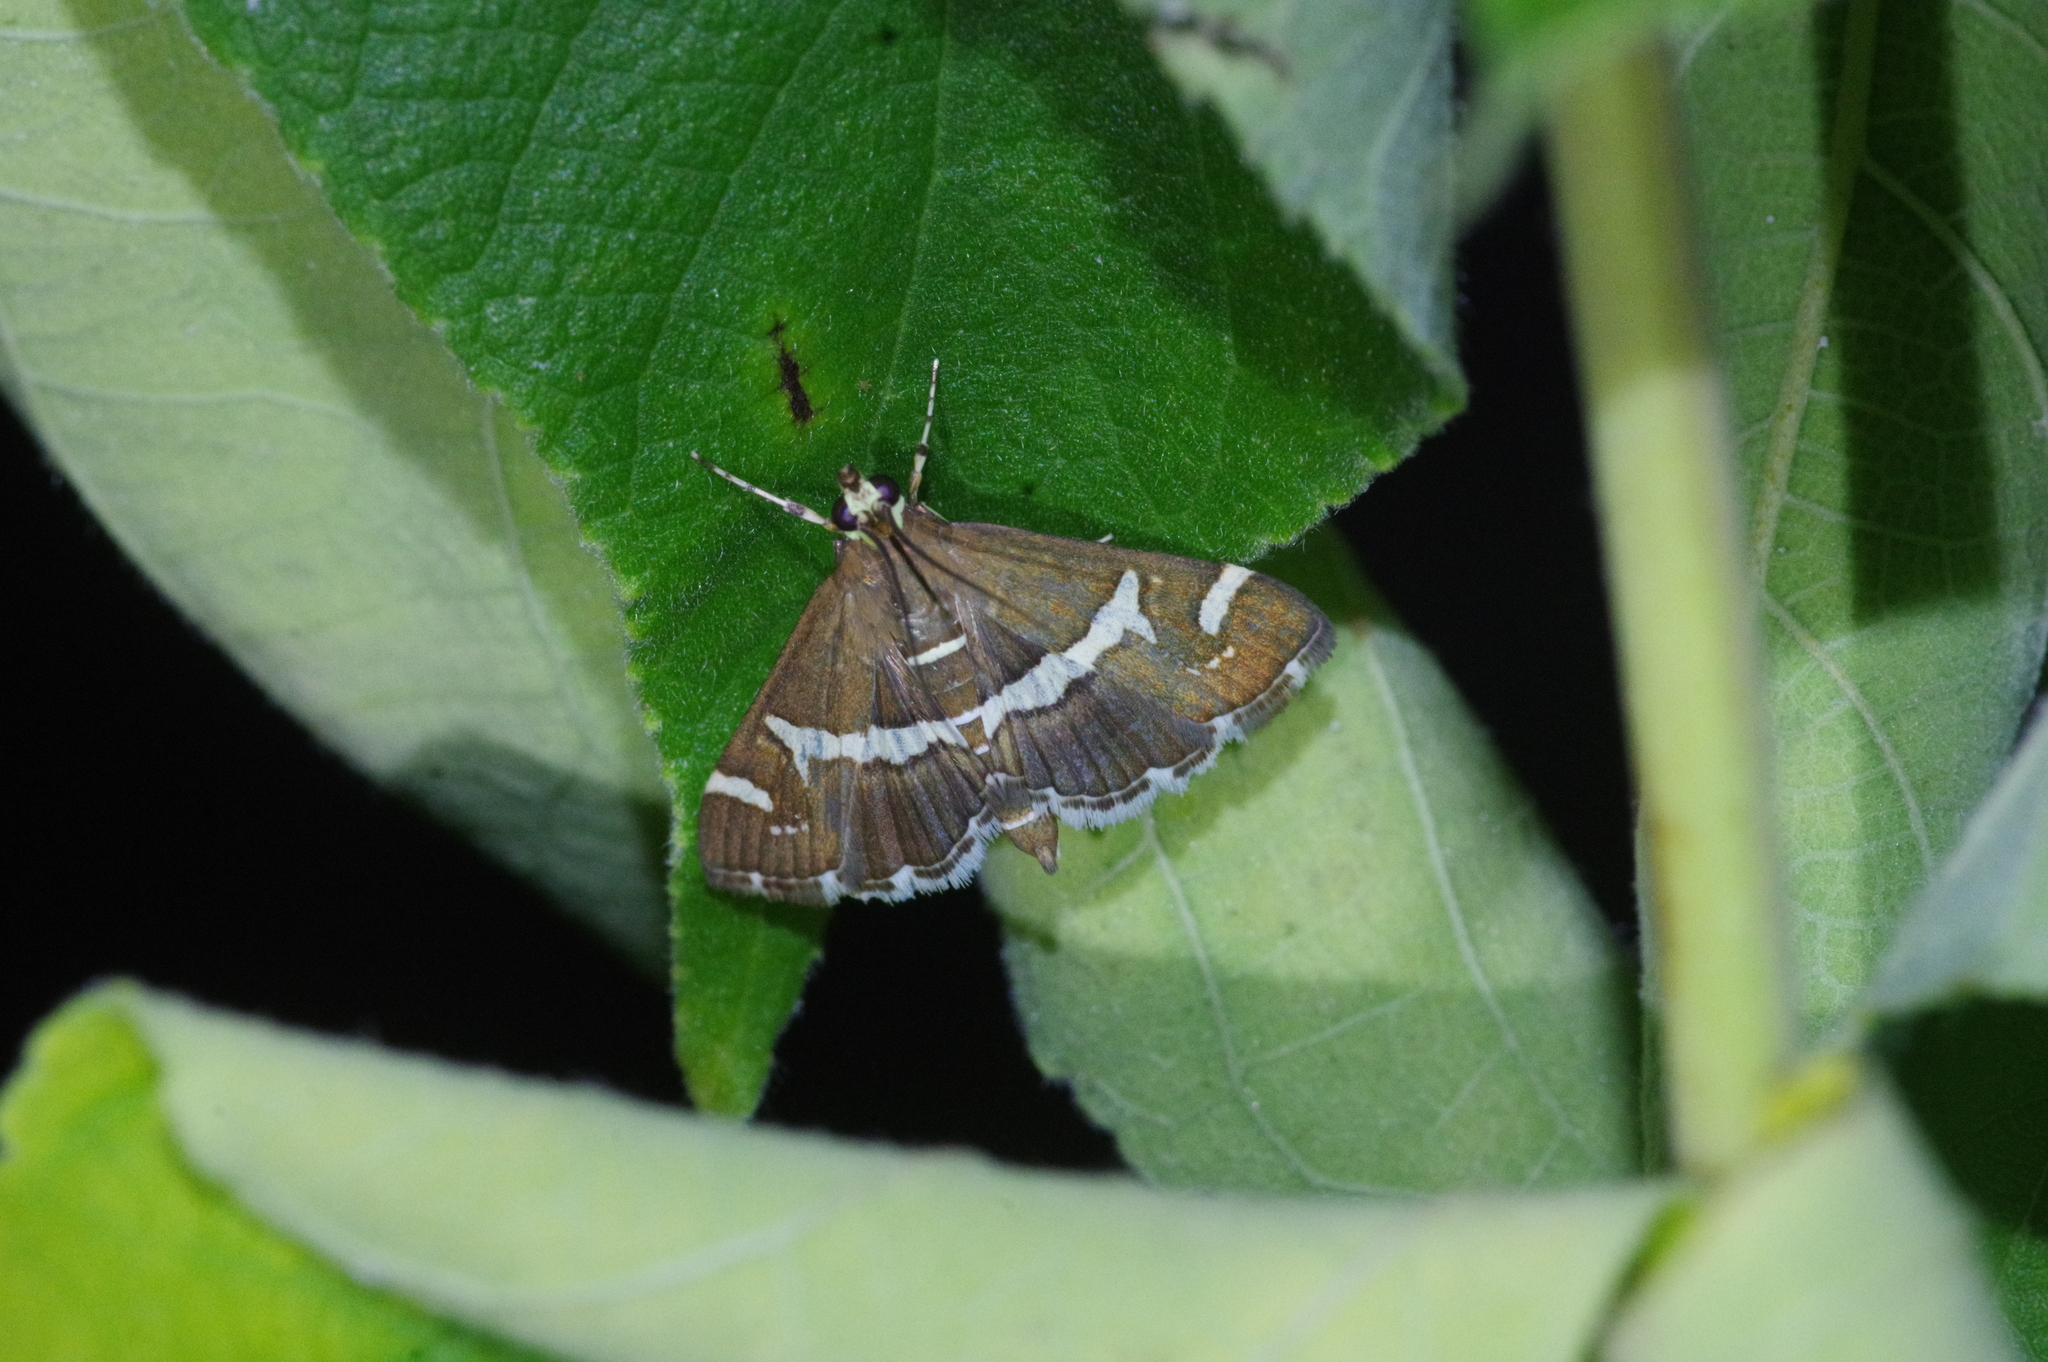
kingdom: Animalia
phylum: Arthropoda
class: Insecta
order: Lepidoptera
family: Crambidae
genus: Spoladea
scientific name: Spoladea recurvalis
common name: Beet webworm moth
